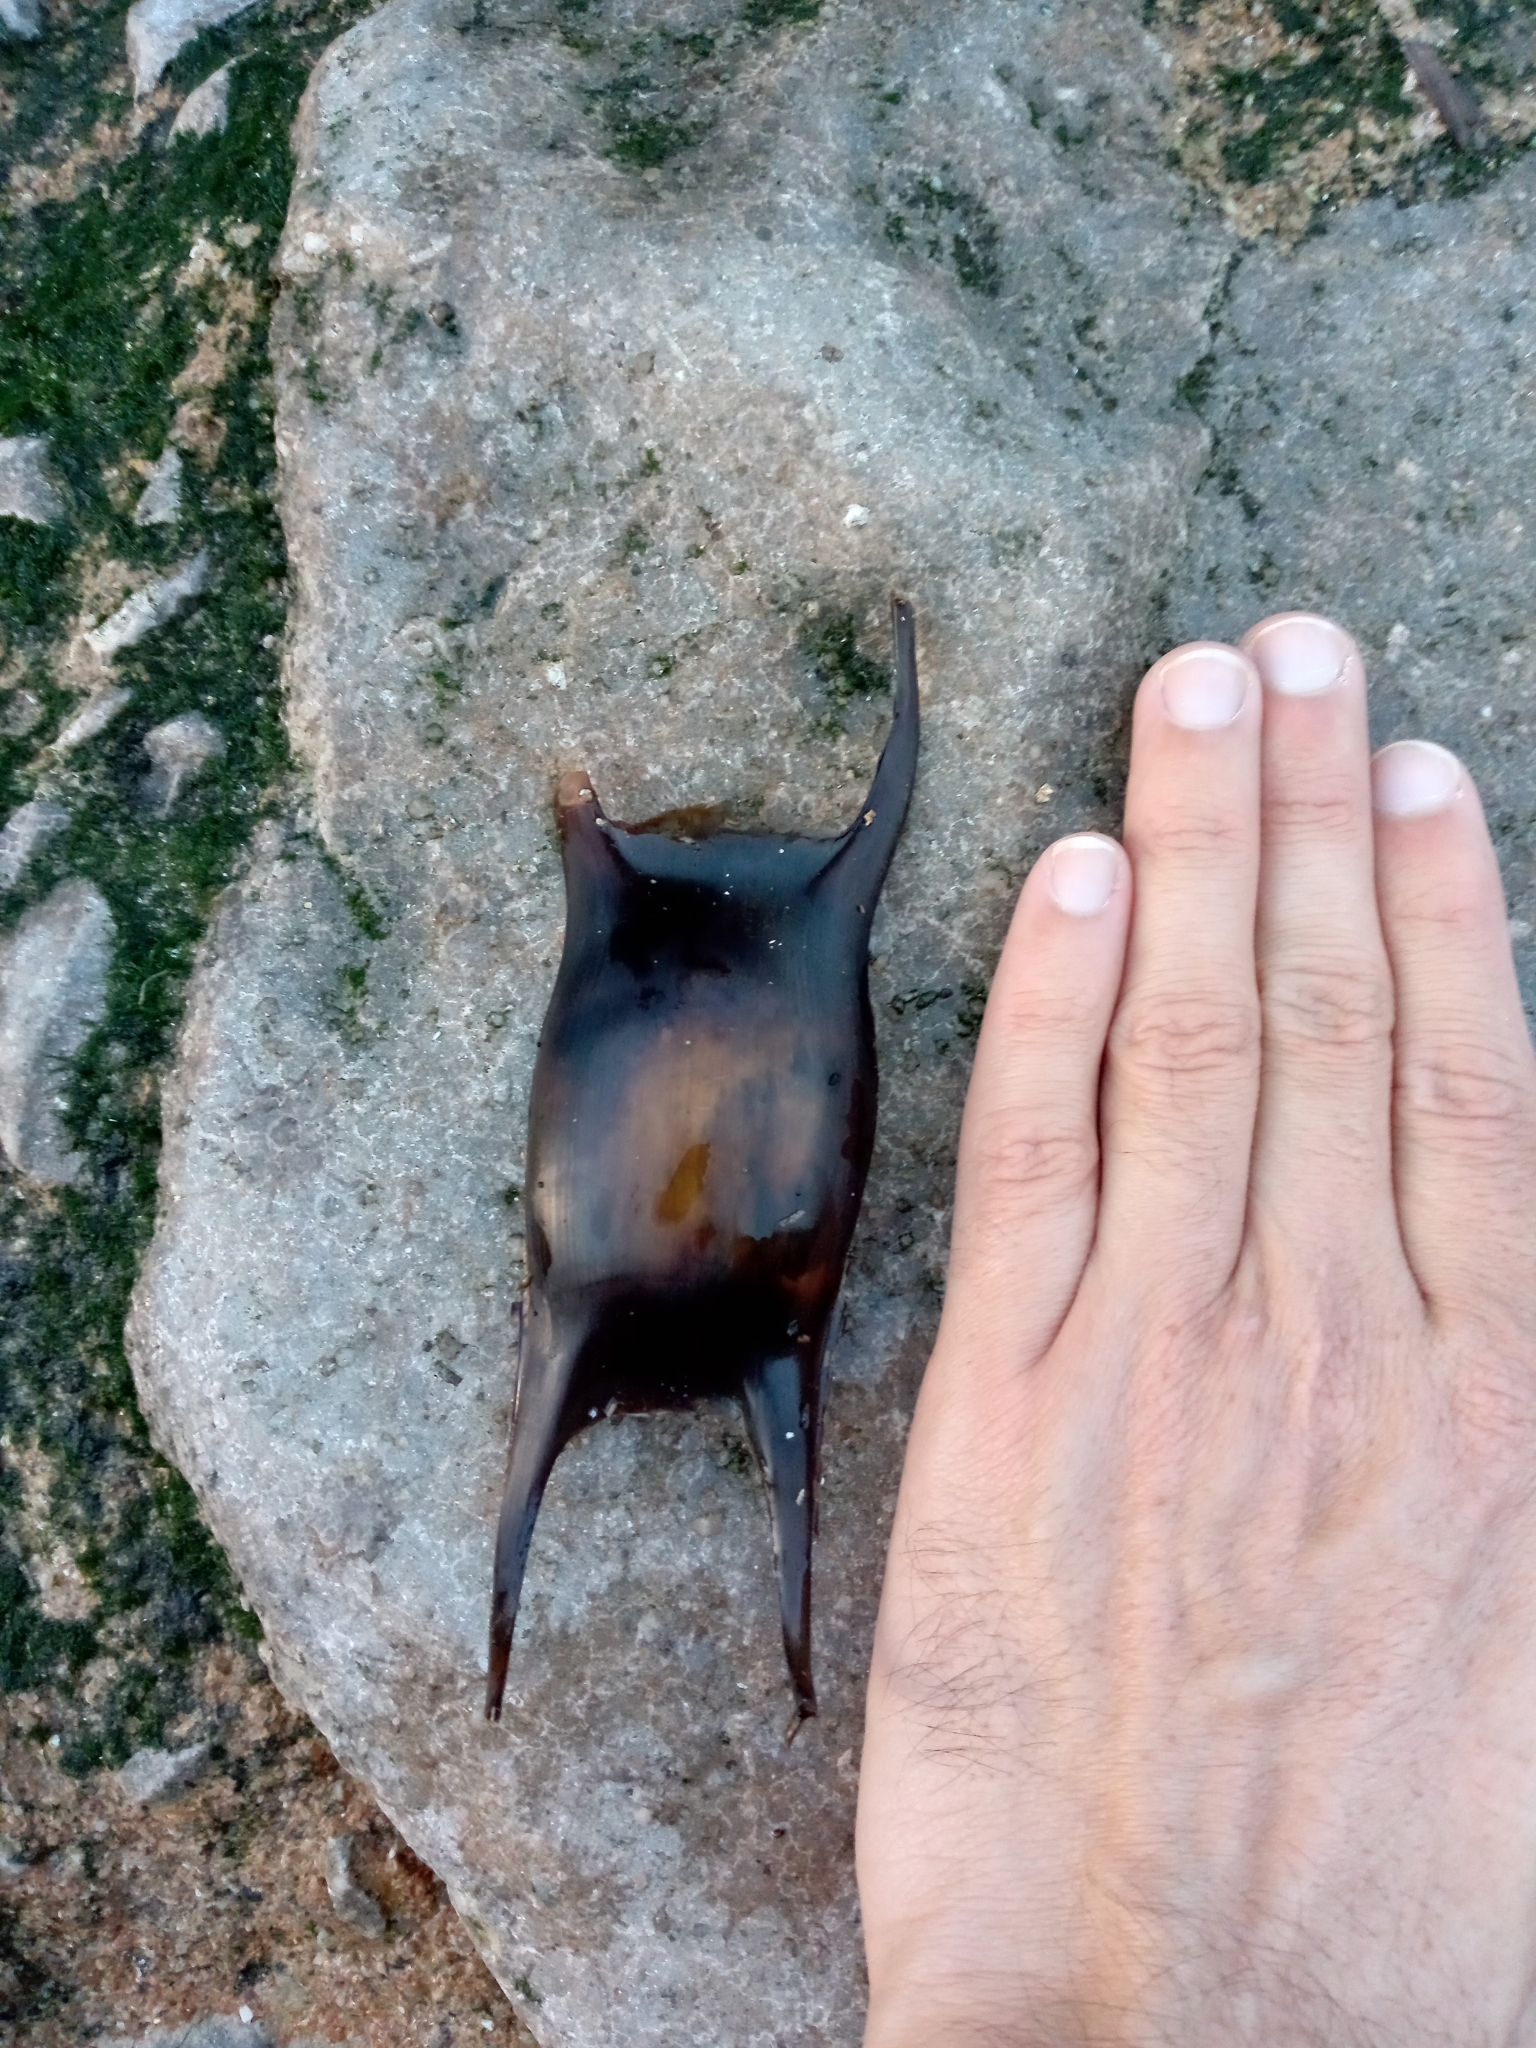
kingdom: Animalia
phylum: Chordata
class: Elasmobranchii
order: Rajiformes
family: Rajidae
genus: Raja
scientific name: Raja montagui
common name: Spotted ray
